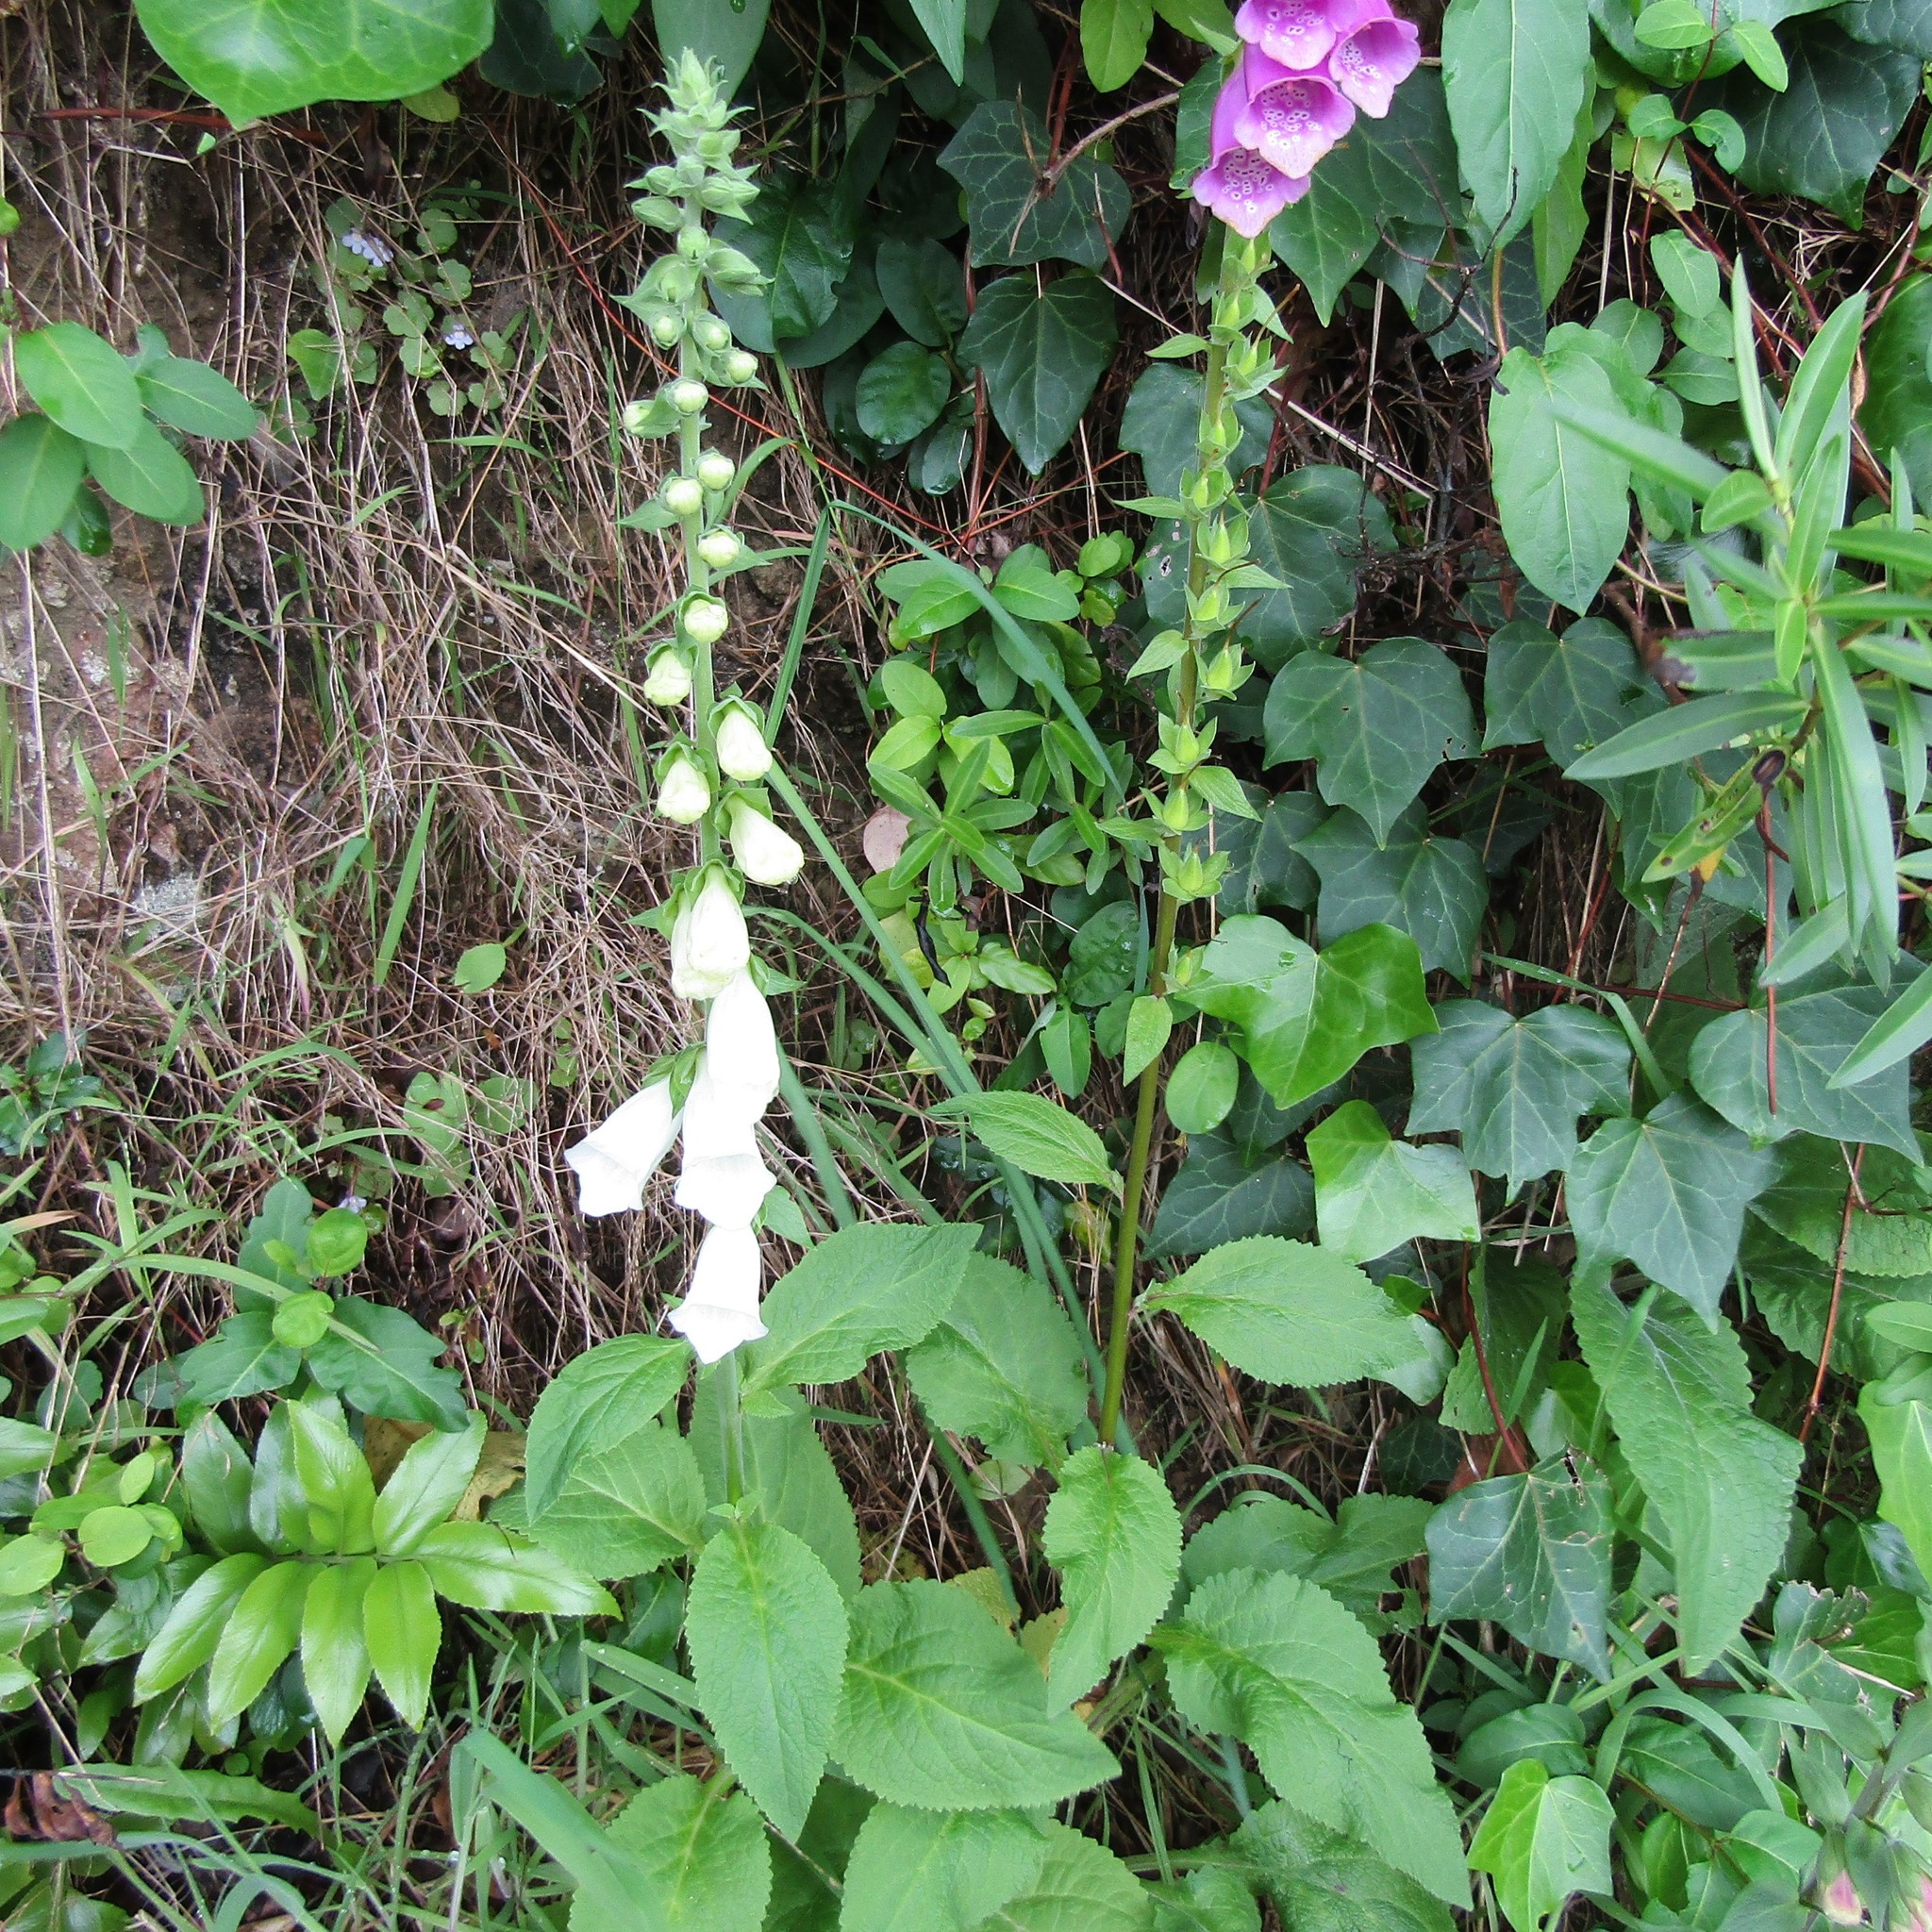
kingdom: Plantae
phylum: Tracheophyta
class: Magnoliopsida
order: Lamiales
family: Plantaginaceae
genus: Digitalis
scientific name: Digitalis purpurea
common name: Foxglove
